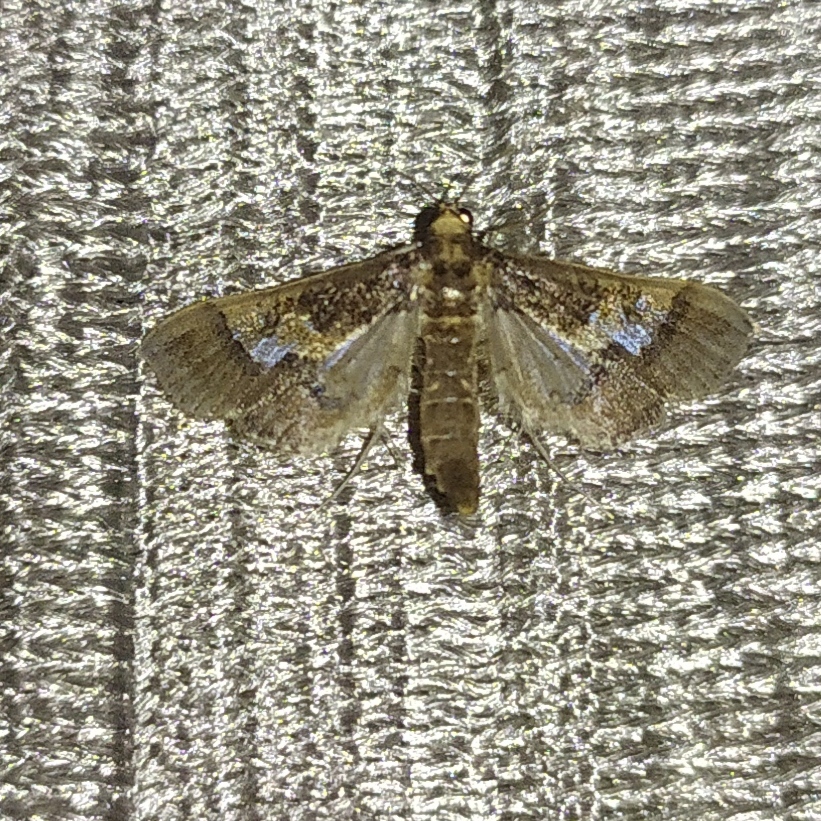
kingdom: Animalia
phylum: Arthropoda
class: Insecta
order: Lepidoptera
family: Crambidae
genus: Hydriris
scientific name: Hydriris ornatalis
